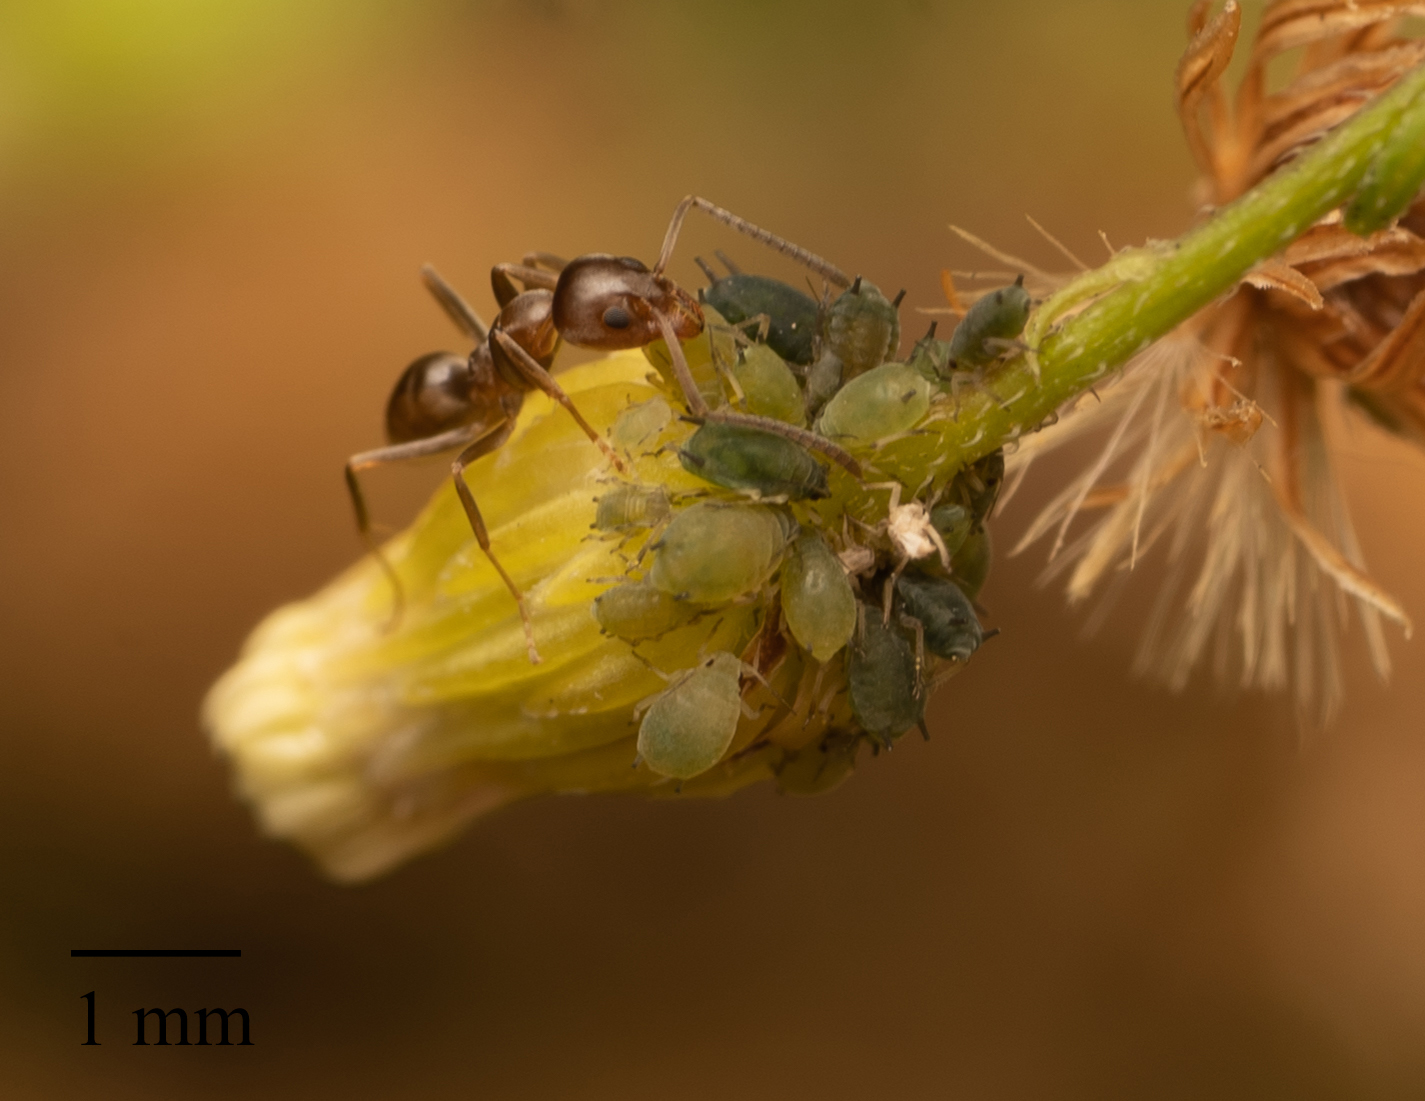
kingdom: Animalia
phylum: Arthropoda
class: Insecta
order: Hemiptera
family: Aphididae
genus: Aphis
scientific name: Aphis gossypii
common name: Melon aphid
